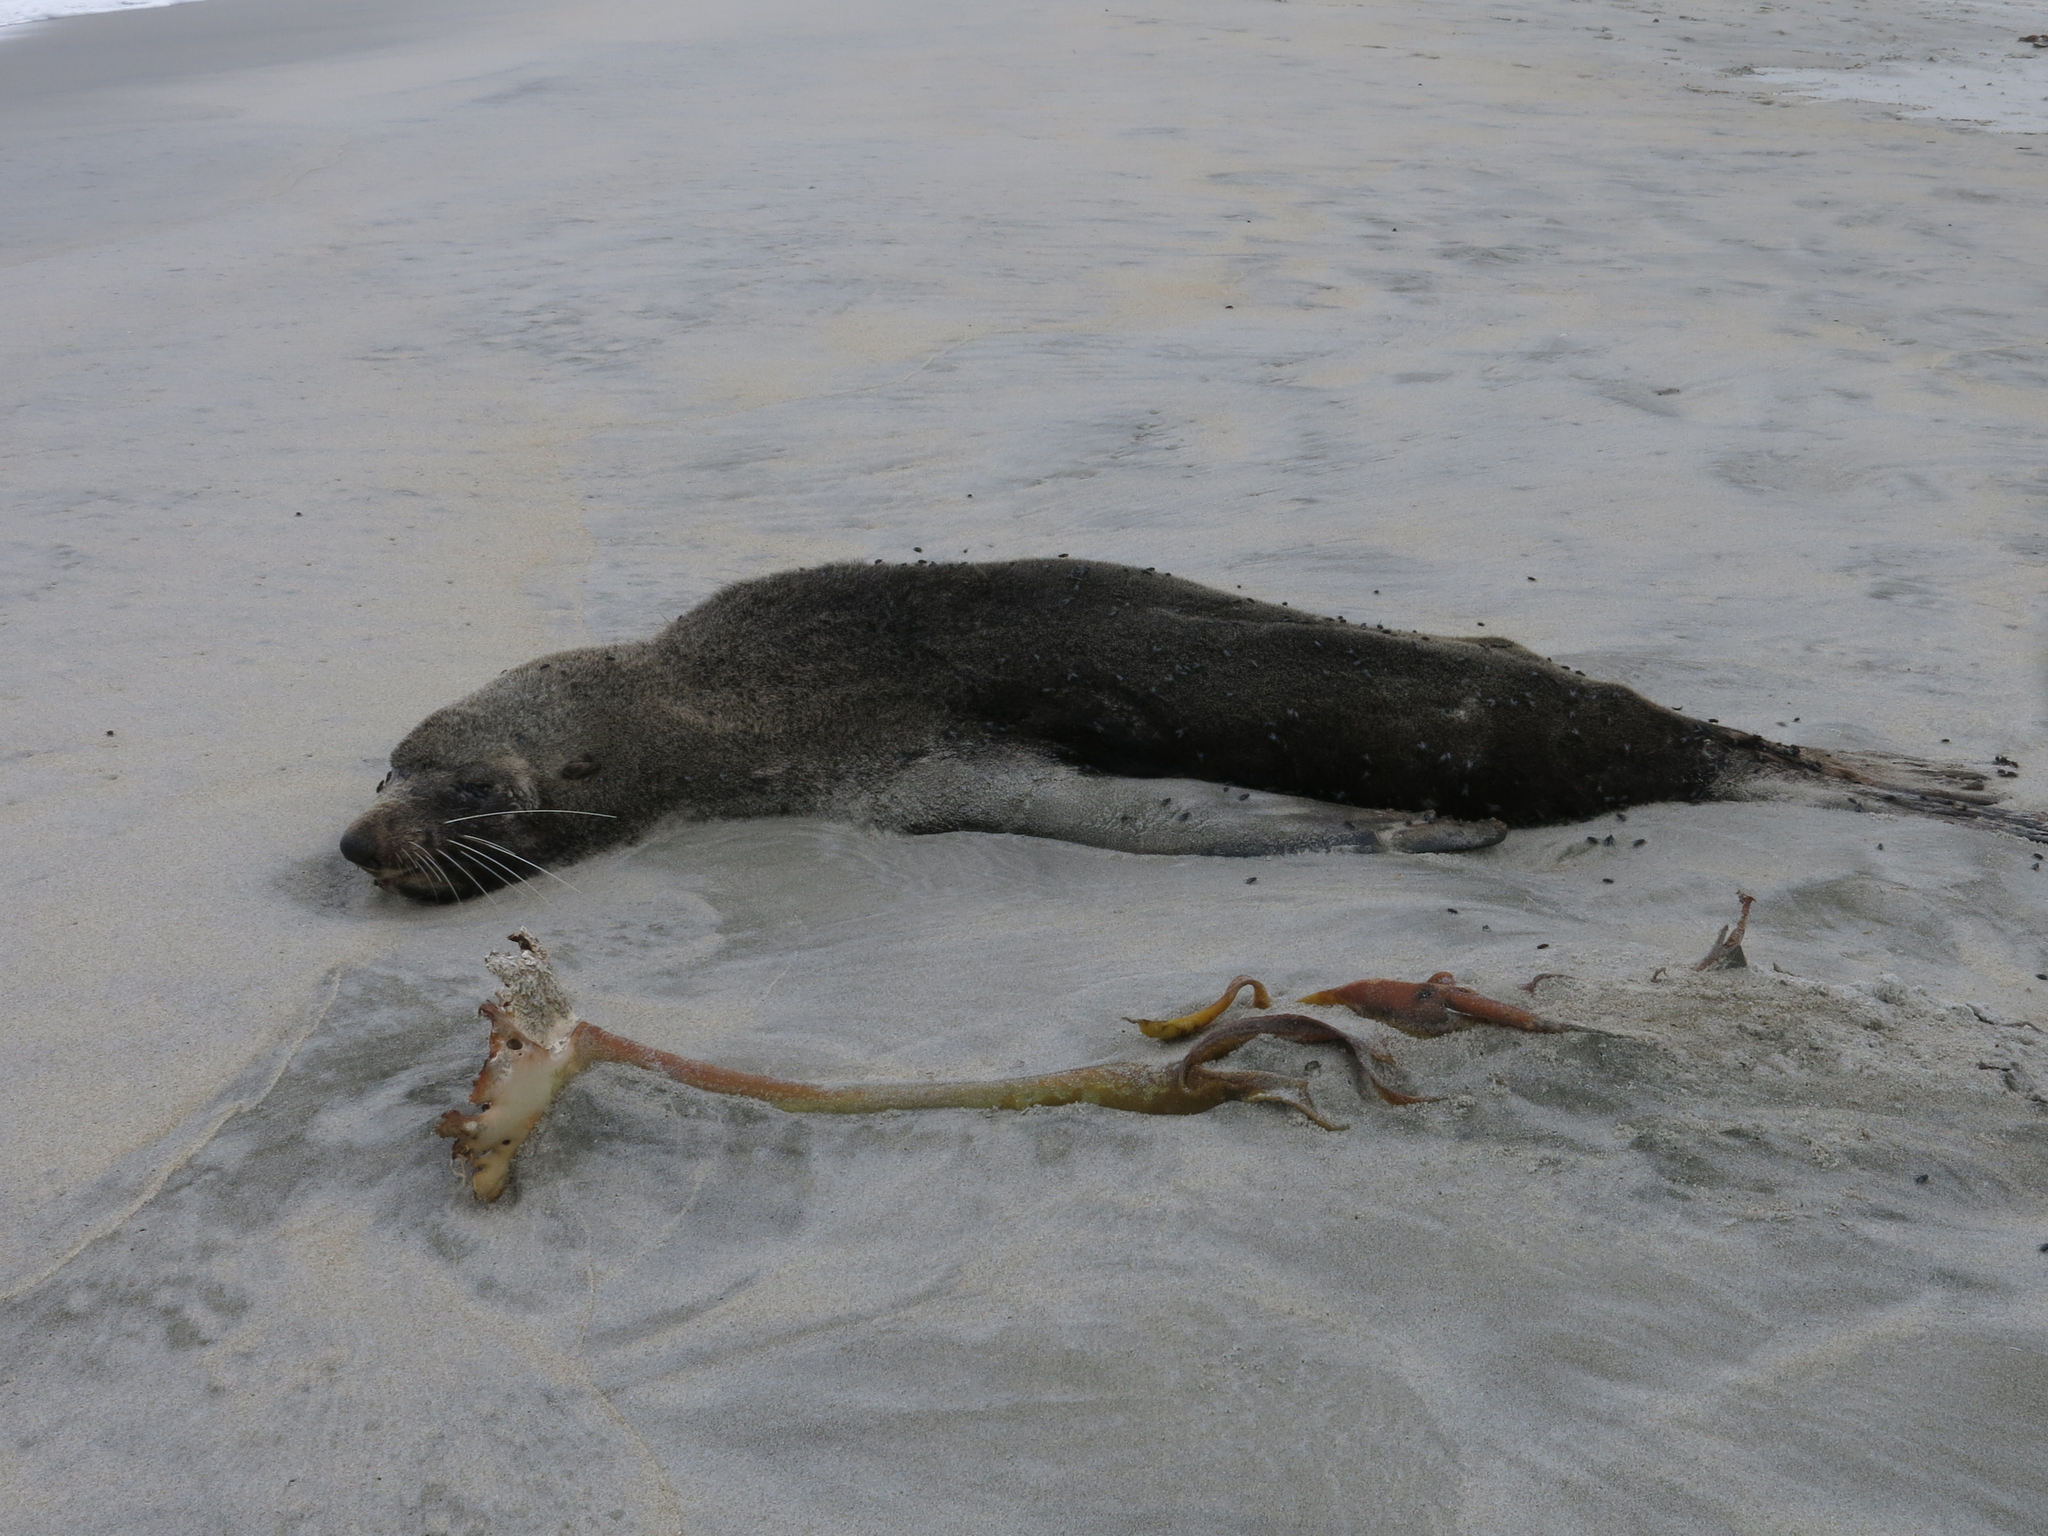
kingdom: Animalia
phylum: Chordata
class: Mammalia
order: Carnivora
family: Otariidae
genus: Arctocephalus
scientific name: Arctocephalus forsteri
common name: New zealand fur seal
